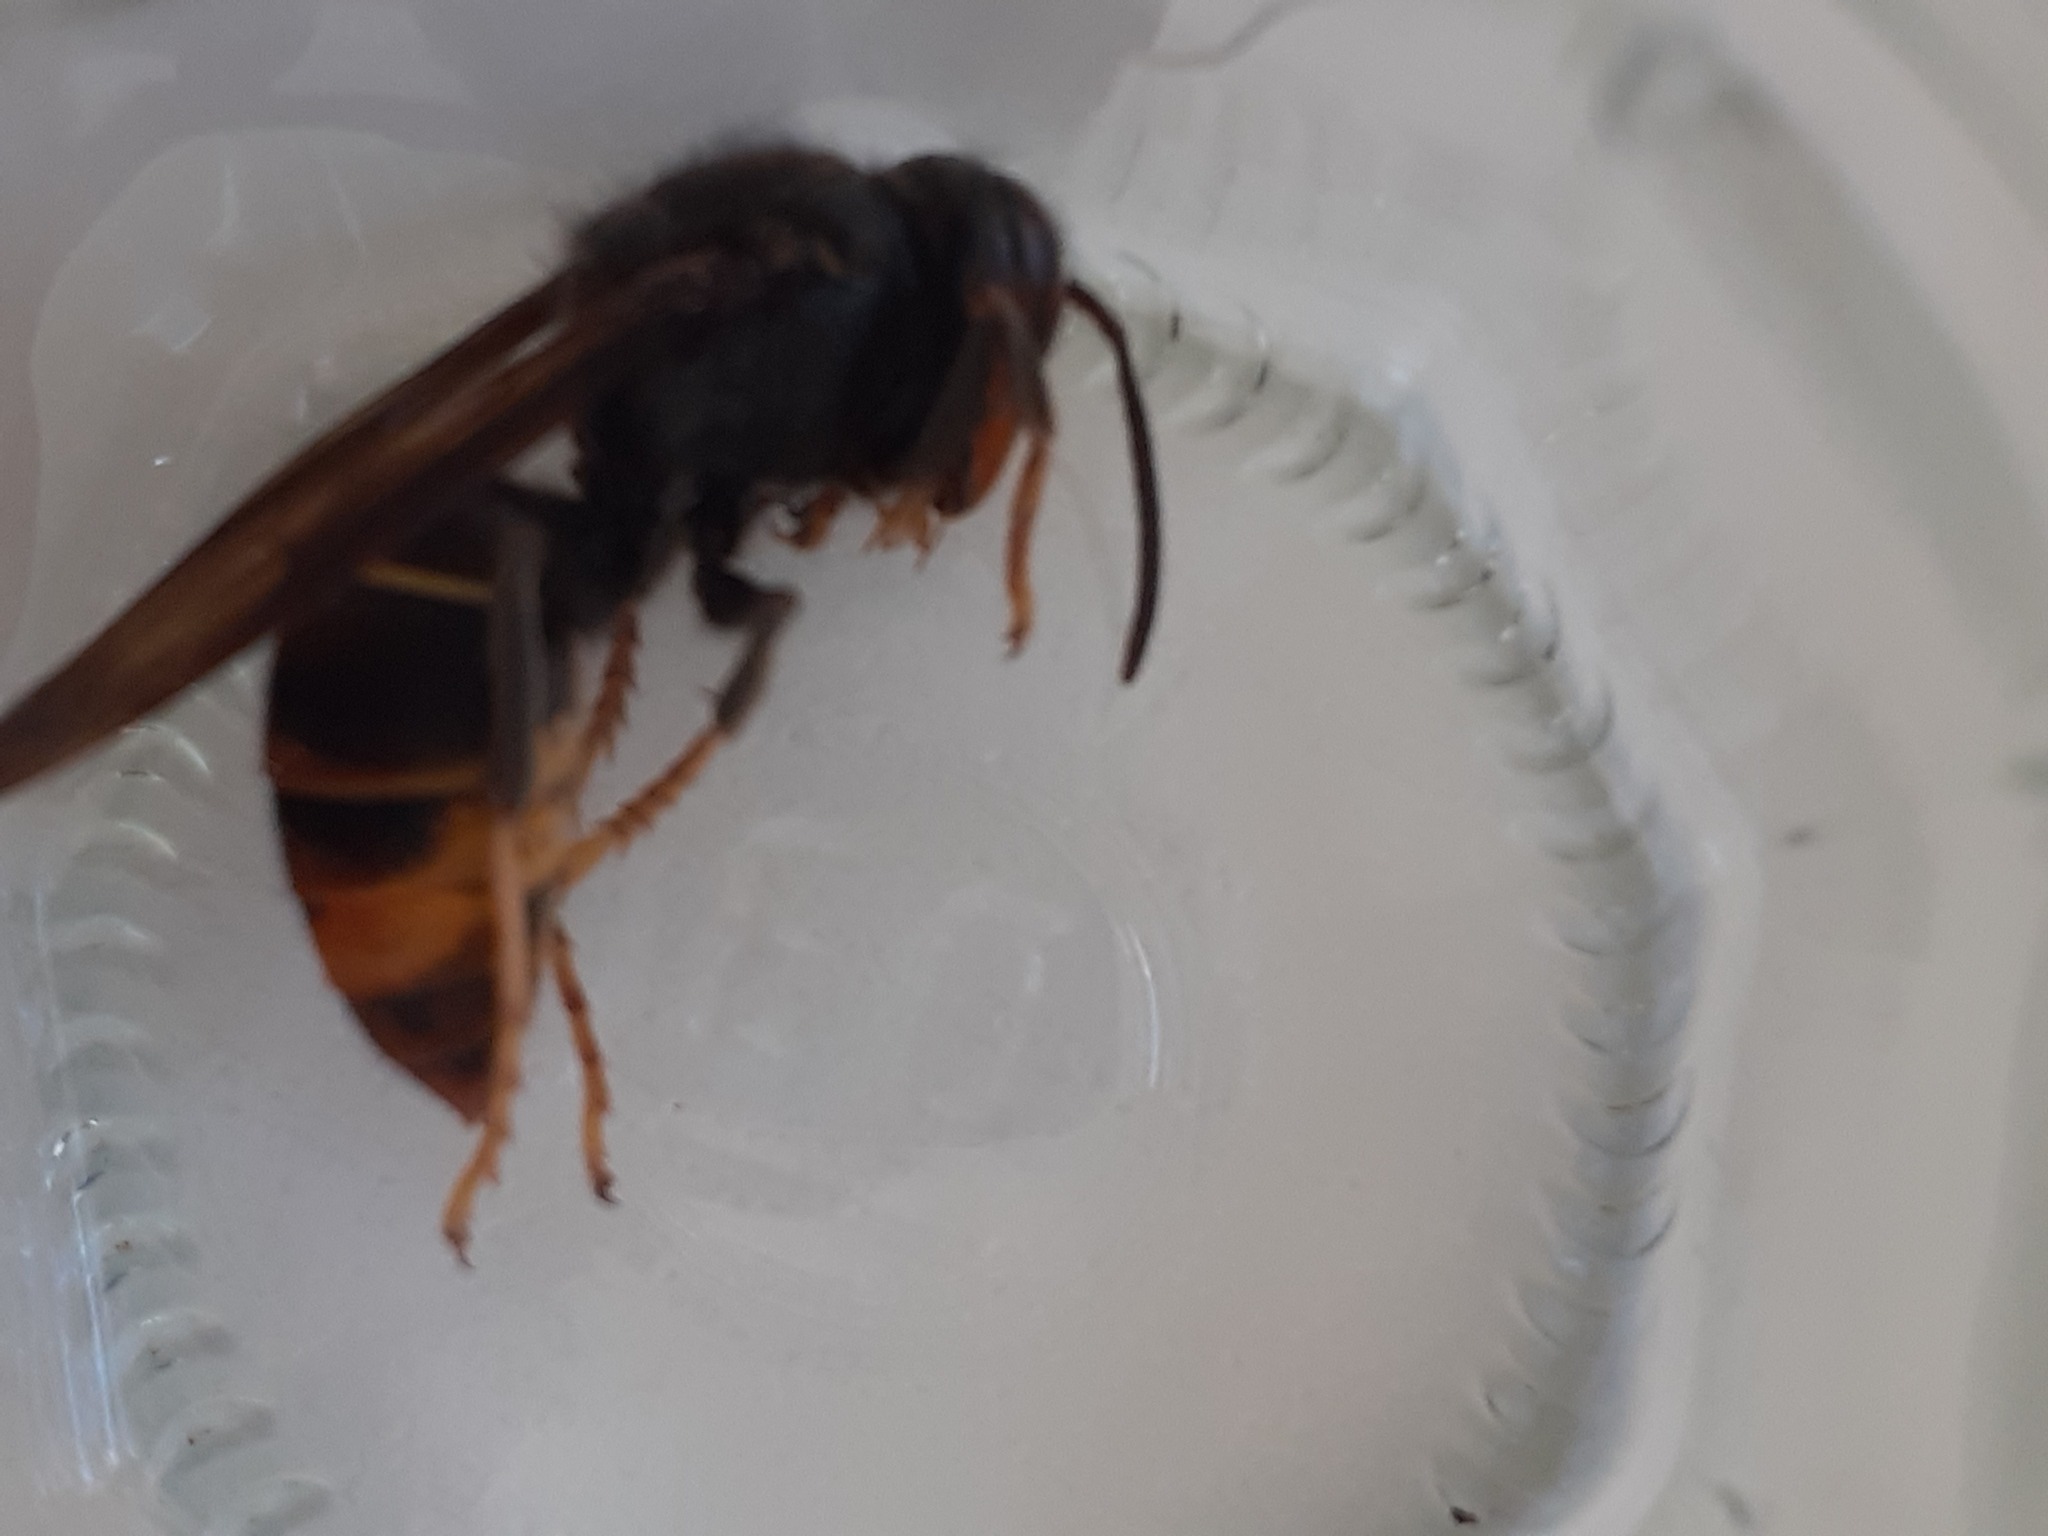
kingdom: Animalia
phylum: Arthropoda
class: Insecta
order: Hymenoptera
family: Vespidae
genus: Vespa
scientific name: Vespa velutina
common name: Asian hornet
